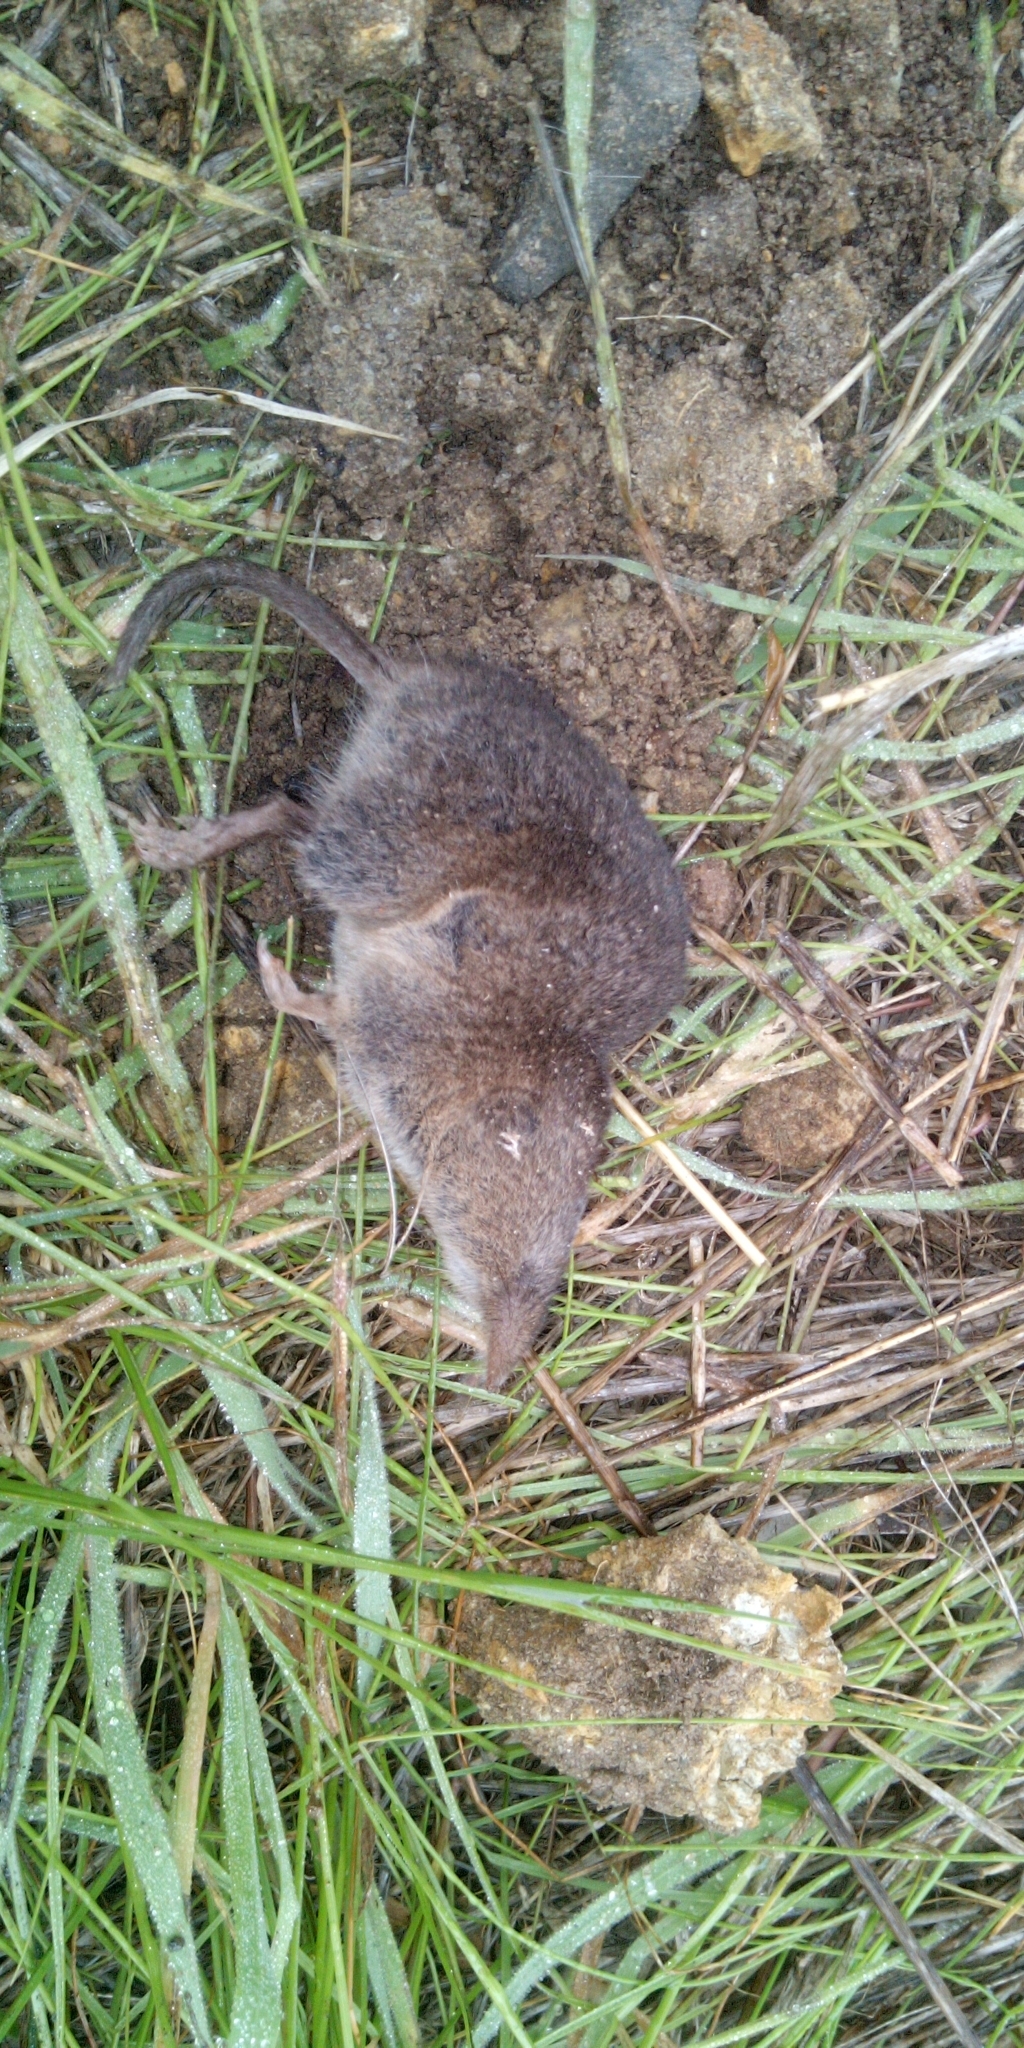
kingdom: Animalia
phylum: Chordata
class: Mammalia
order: Soricomorpha
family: Soricidae
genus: Myosorex
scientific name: Myosorex varius
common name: Forest shrew
